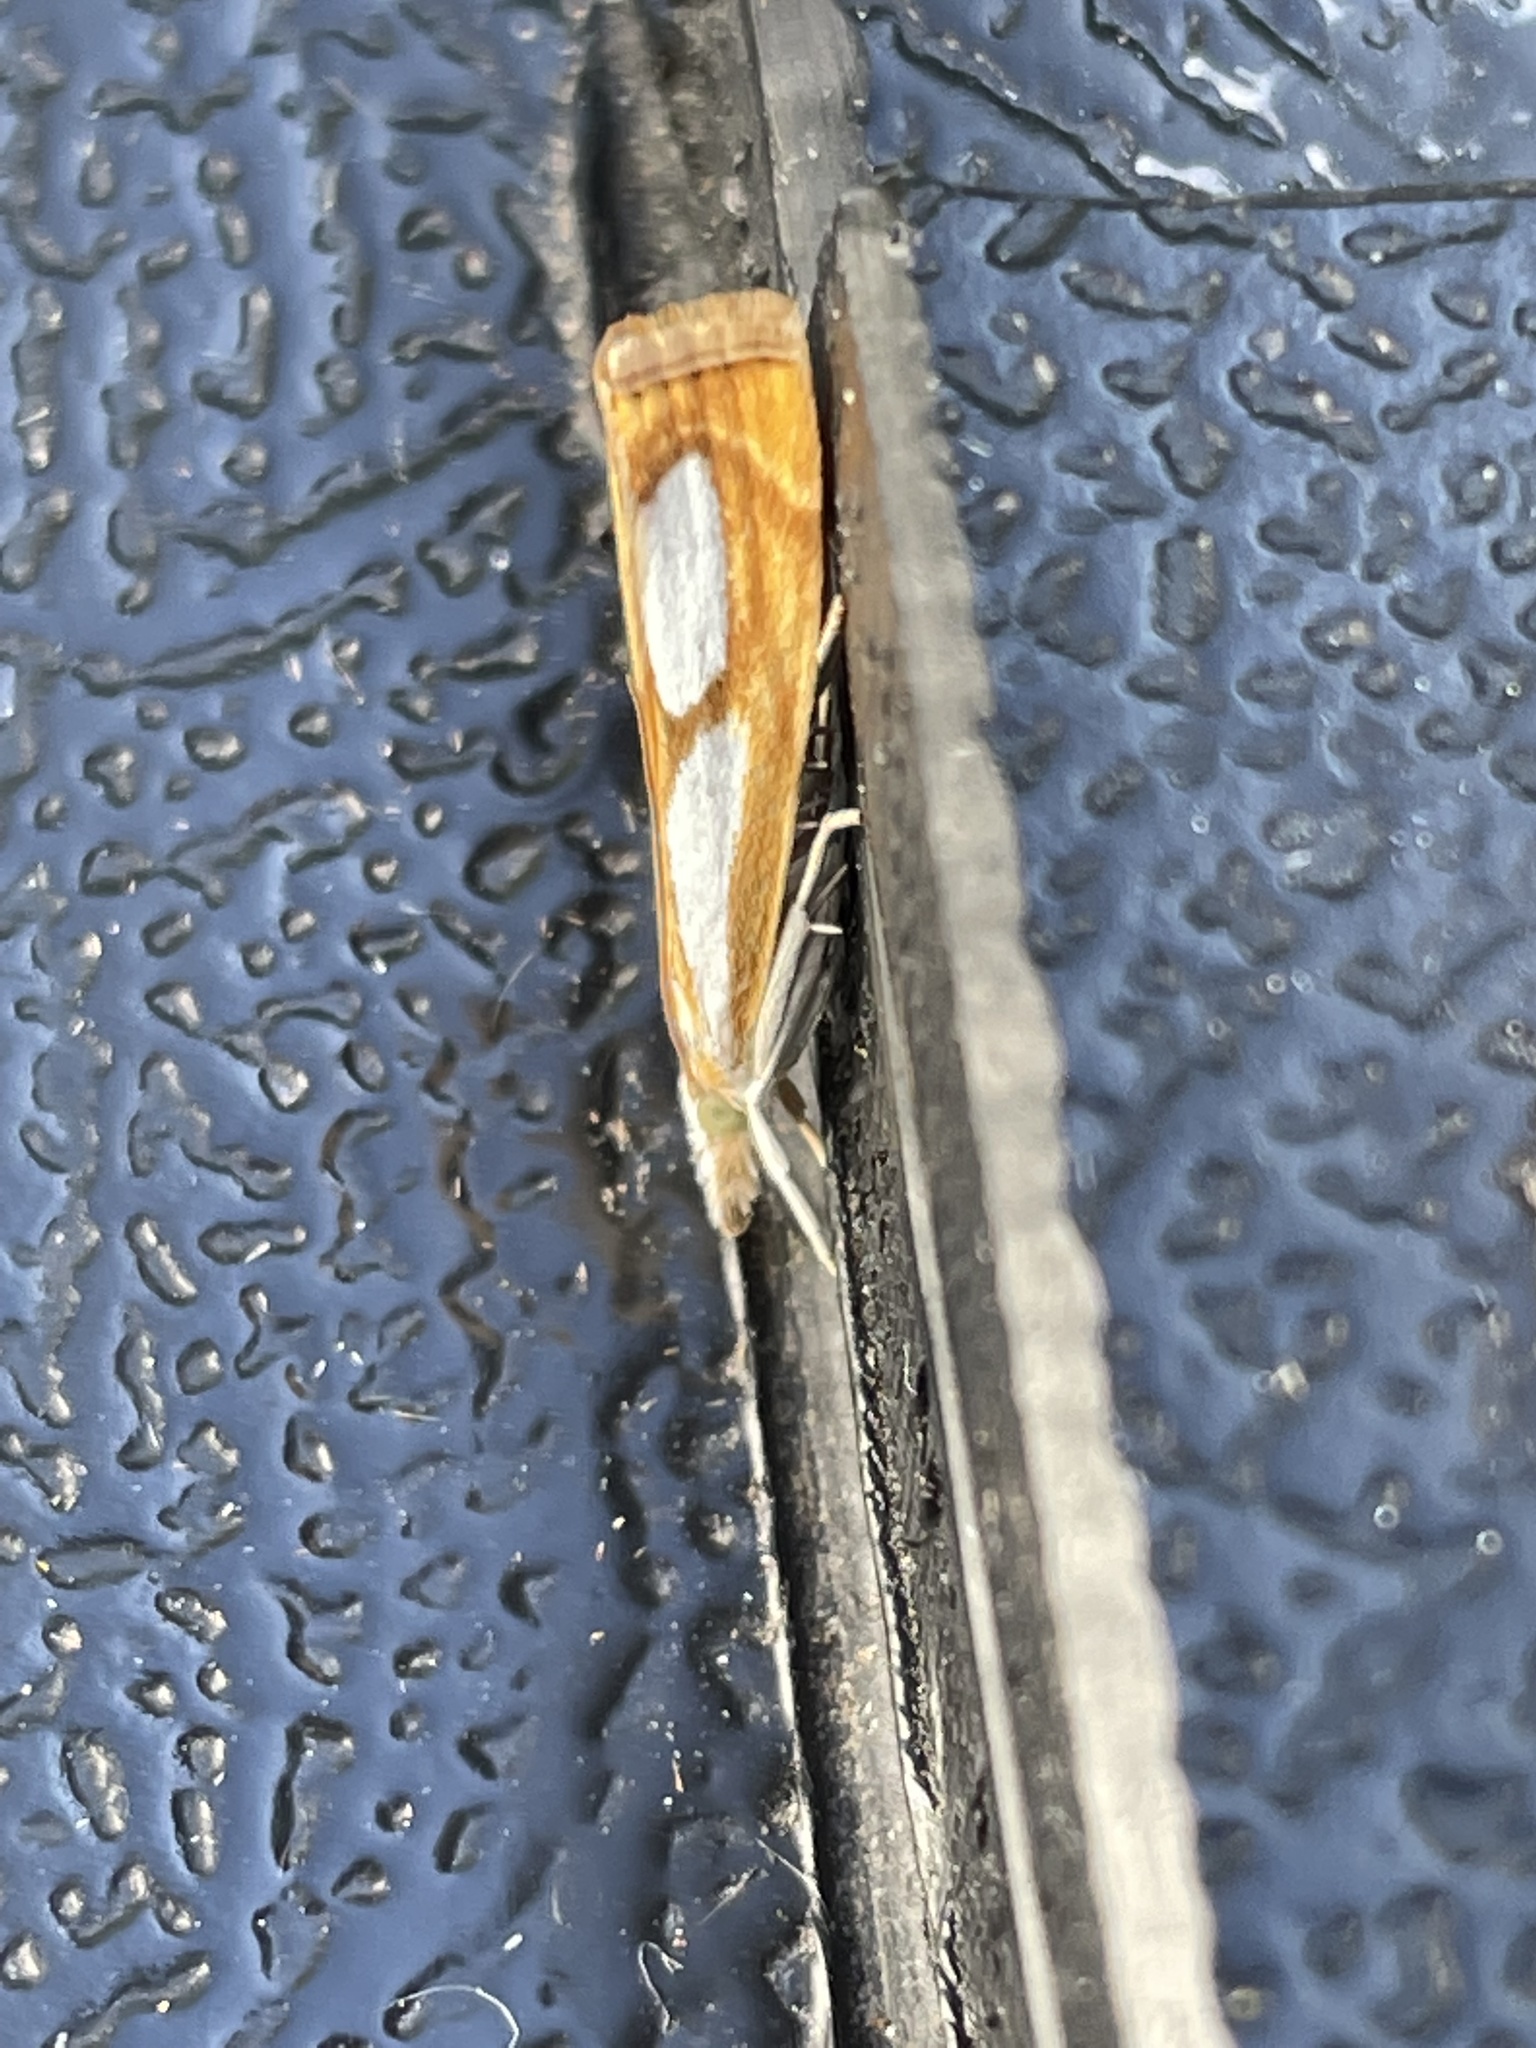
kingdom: Animalia
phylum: Arthropoda
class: Insecta
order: Lepidoptera
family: Crambidae
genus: Catoptria
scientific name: Catoptria pinella
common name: Pearl grass-veneer
